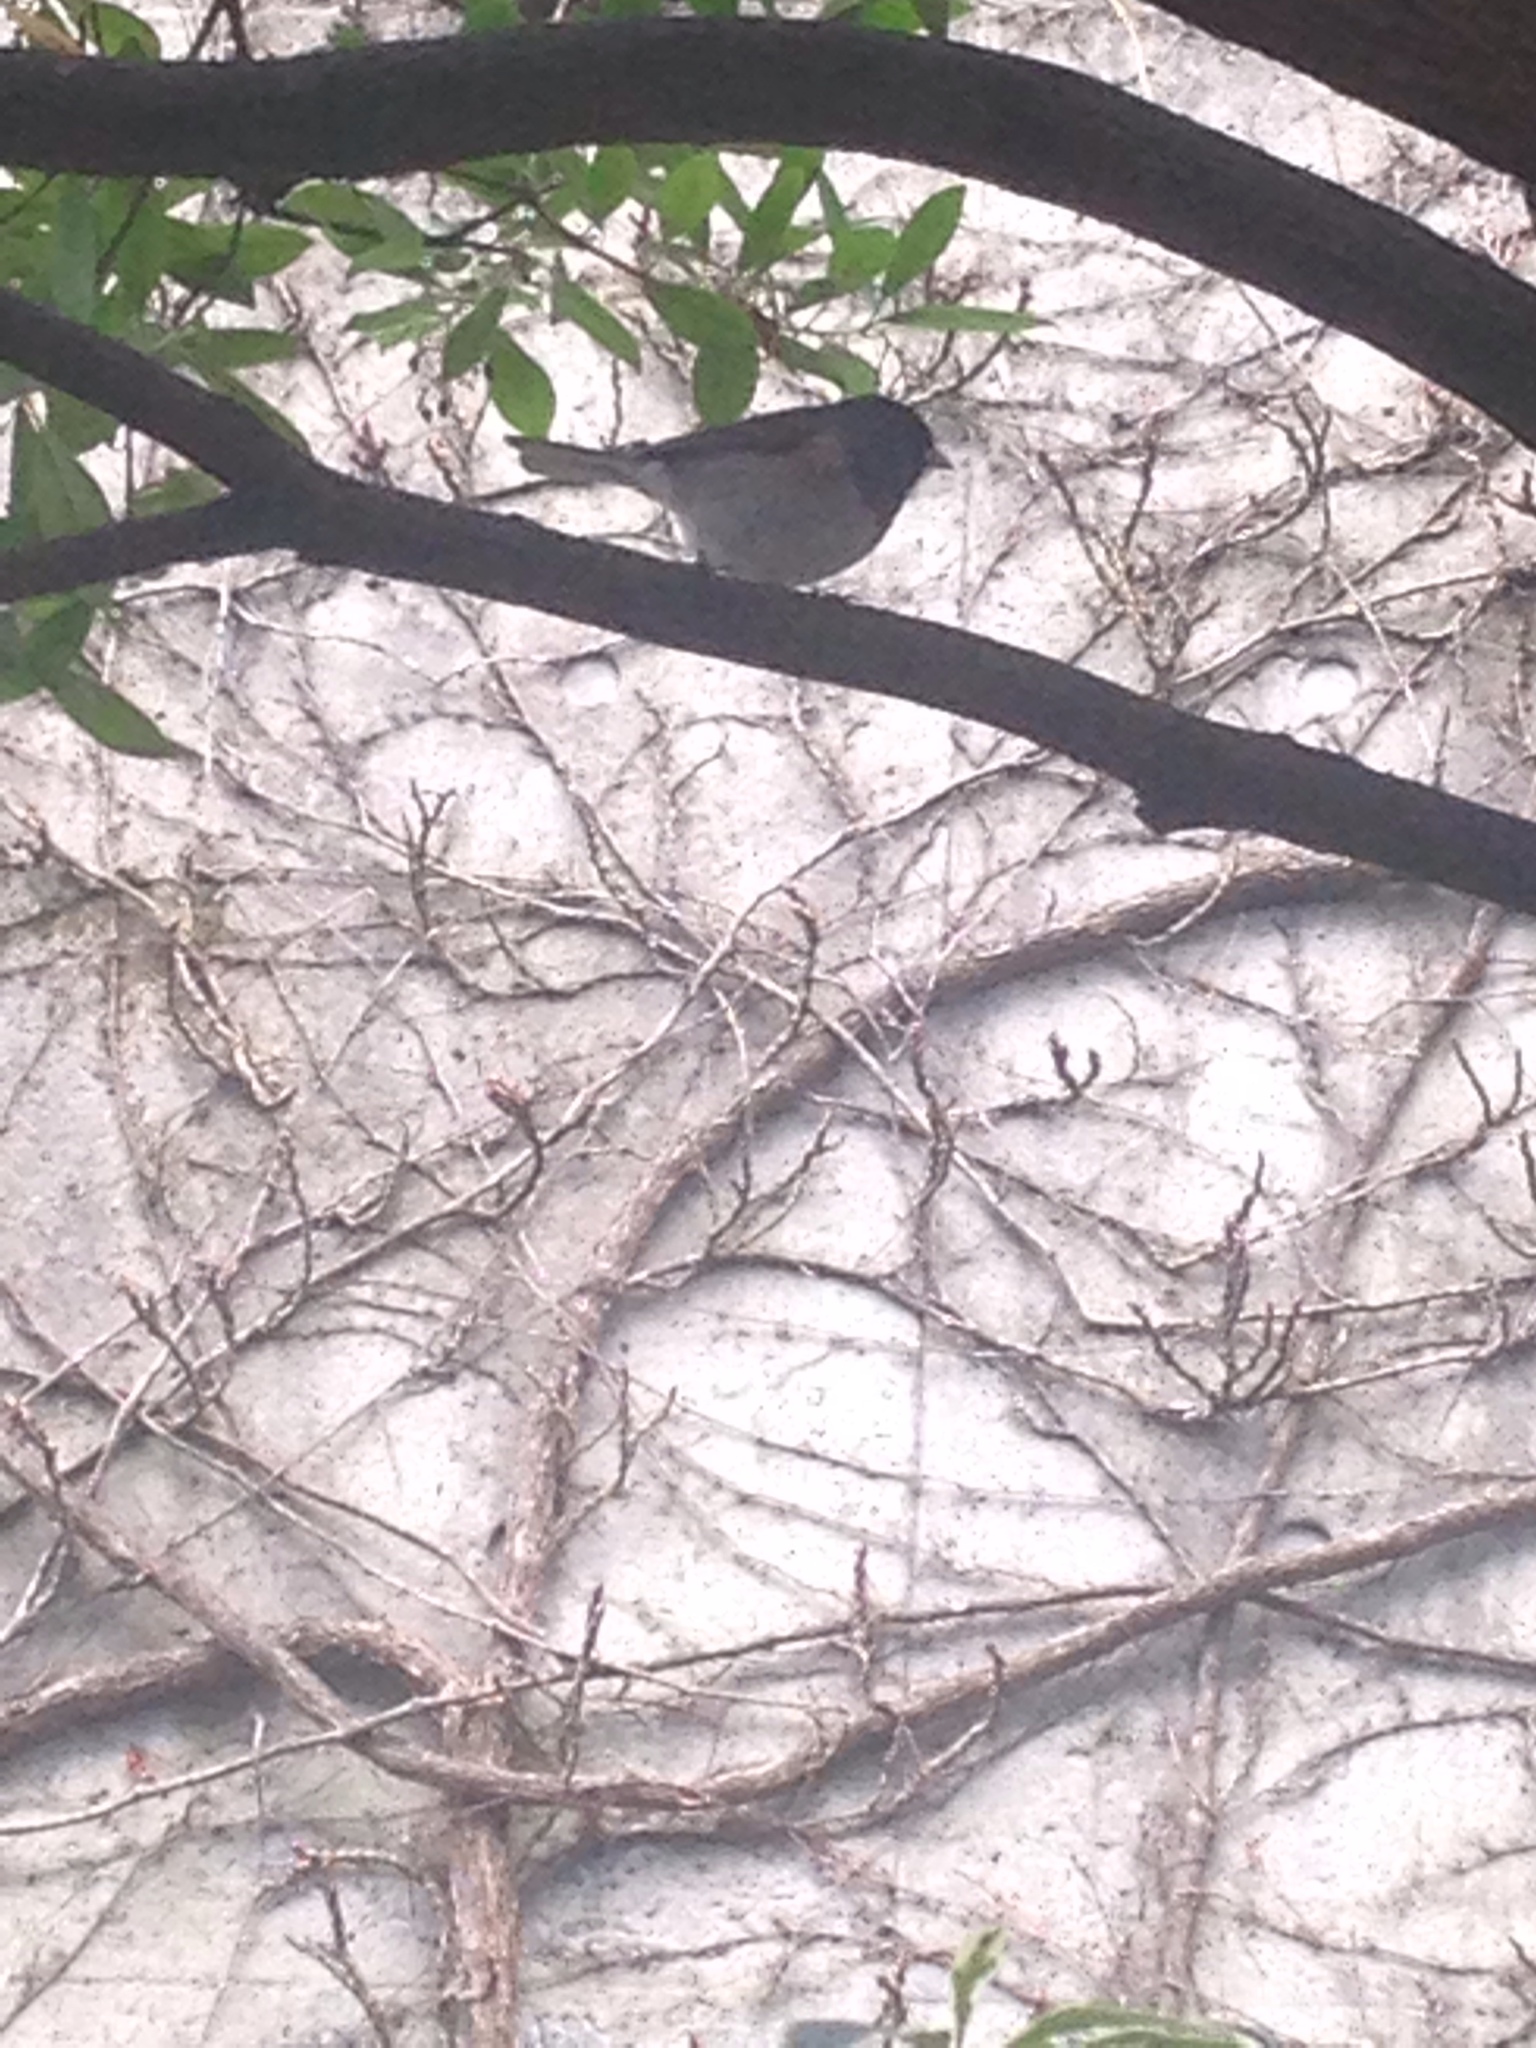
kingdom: Animalia
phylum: Chordata
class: Aves
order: Passeriformes
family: Passerellidae
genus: Junco
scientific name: Junco hyemalis
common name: Dark-eyed junco
